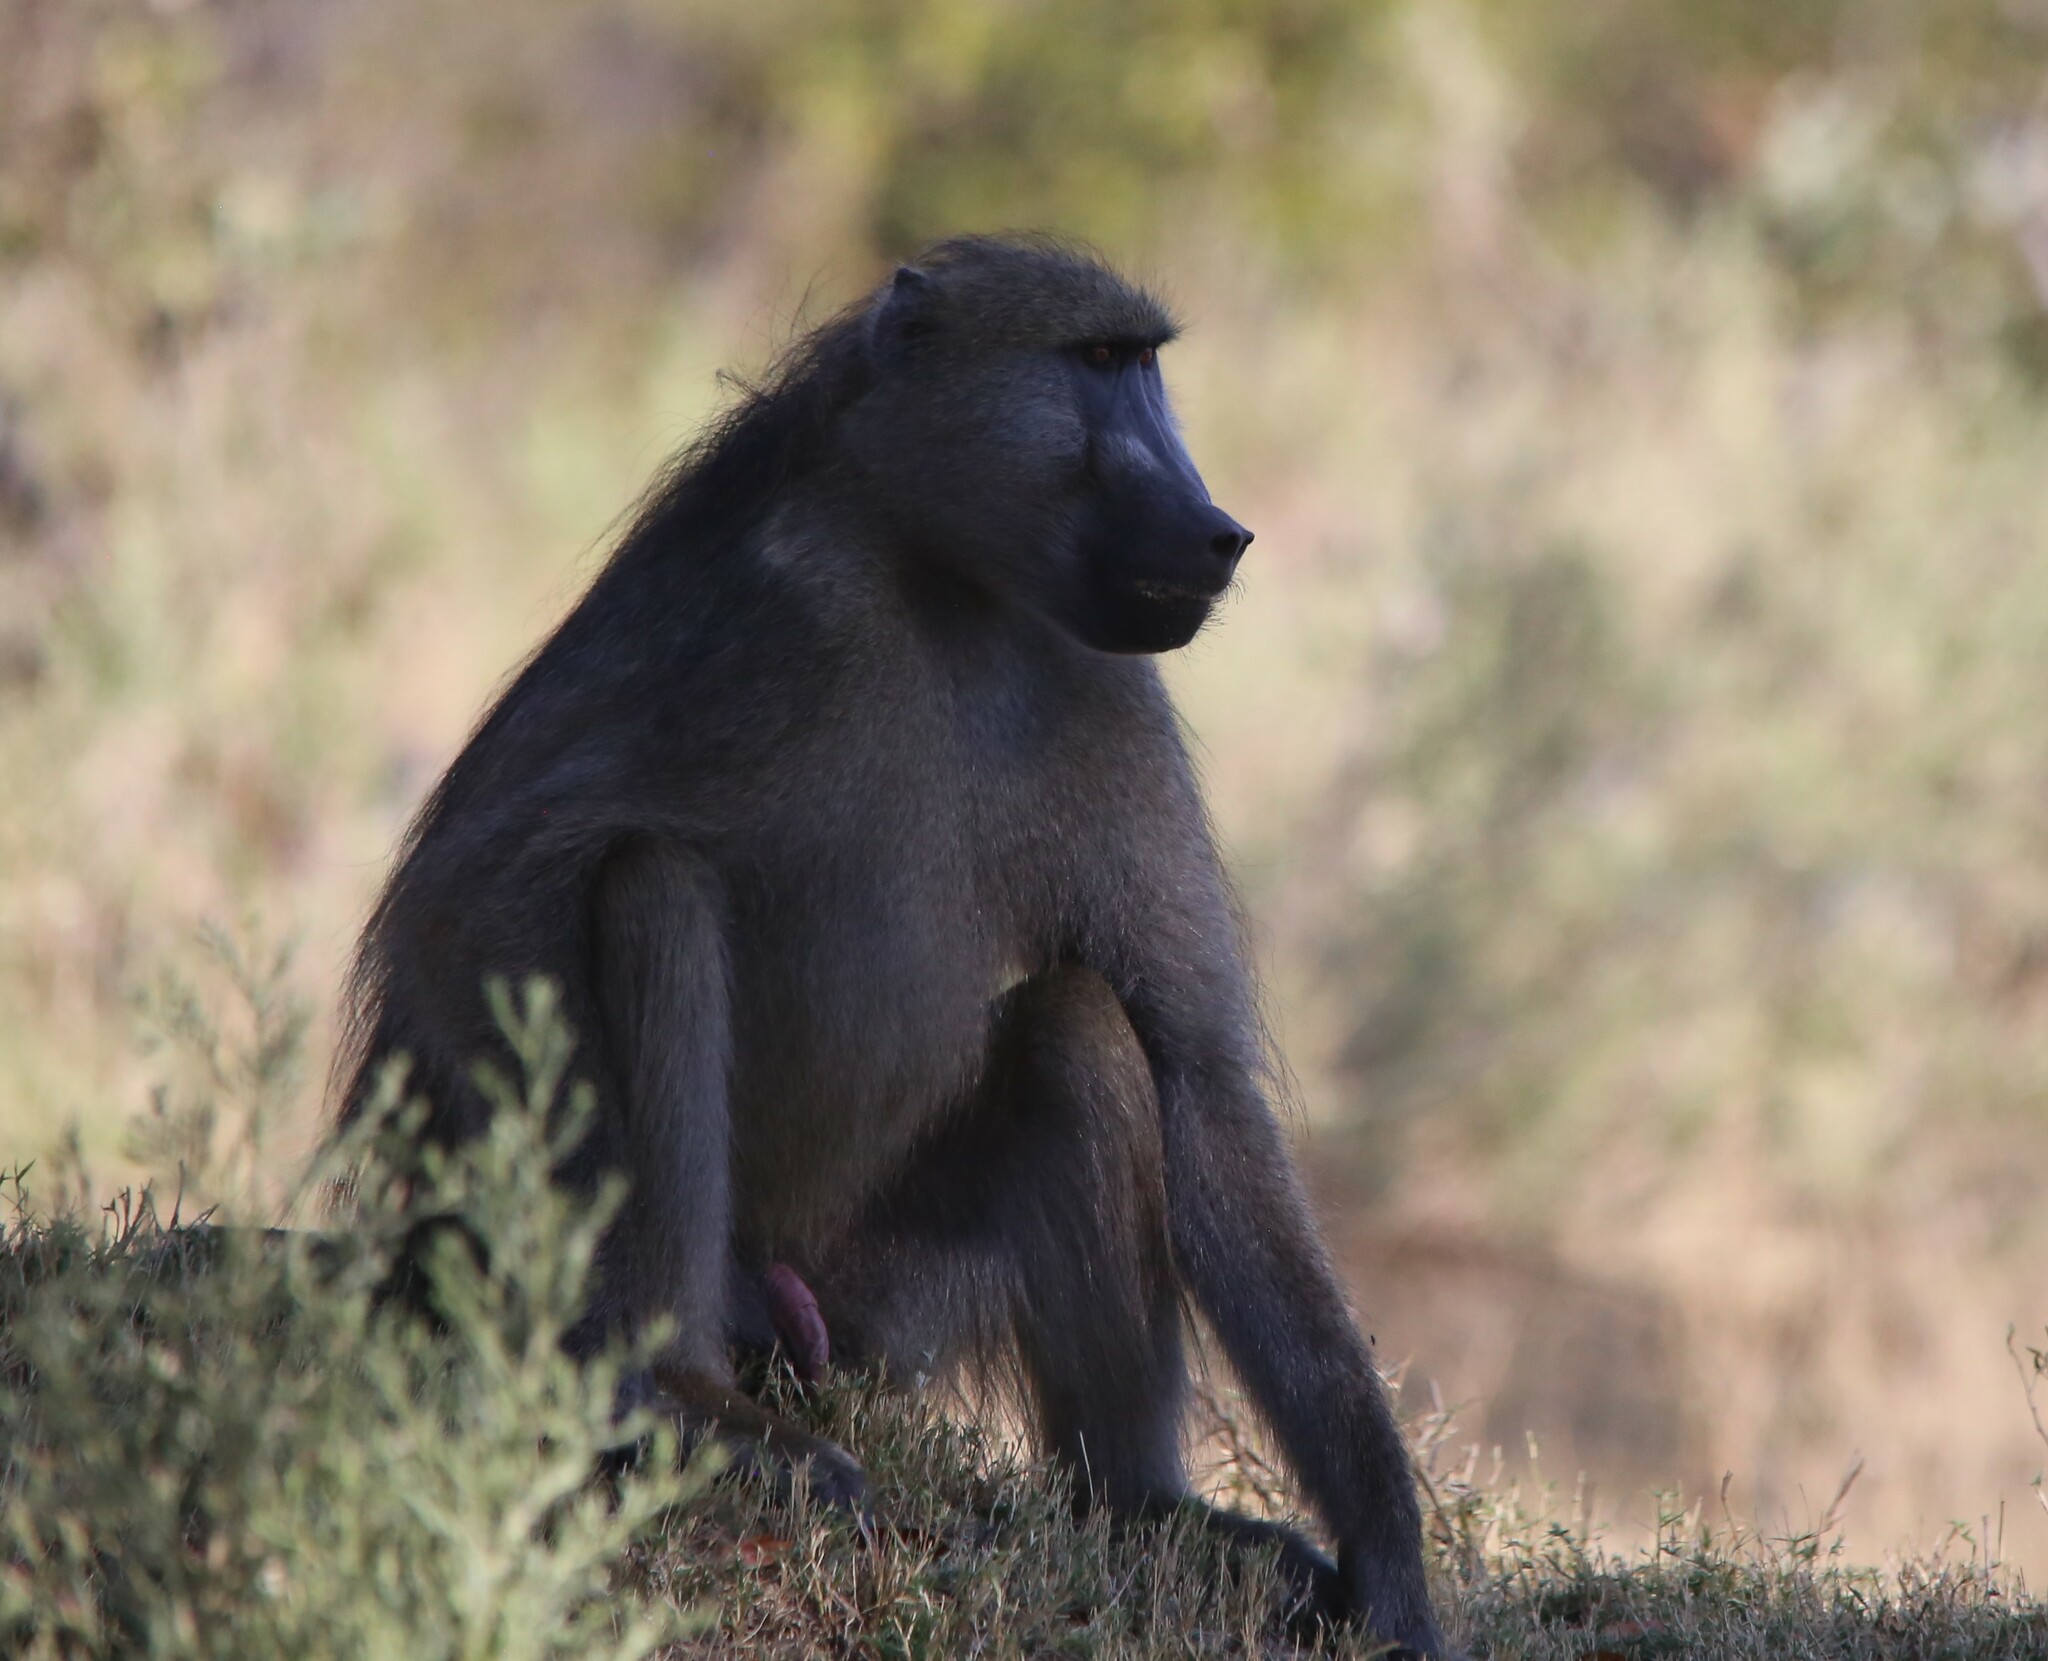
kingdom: Animalia
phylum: Chordata
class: Mammalia
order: Primates
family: Cercopithecidae
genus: Papio
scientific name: Papio ursinus
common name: Chacma baboon
